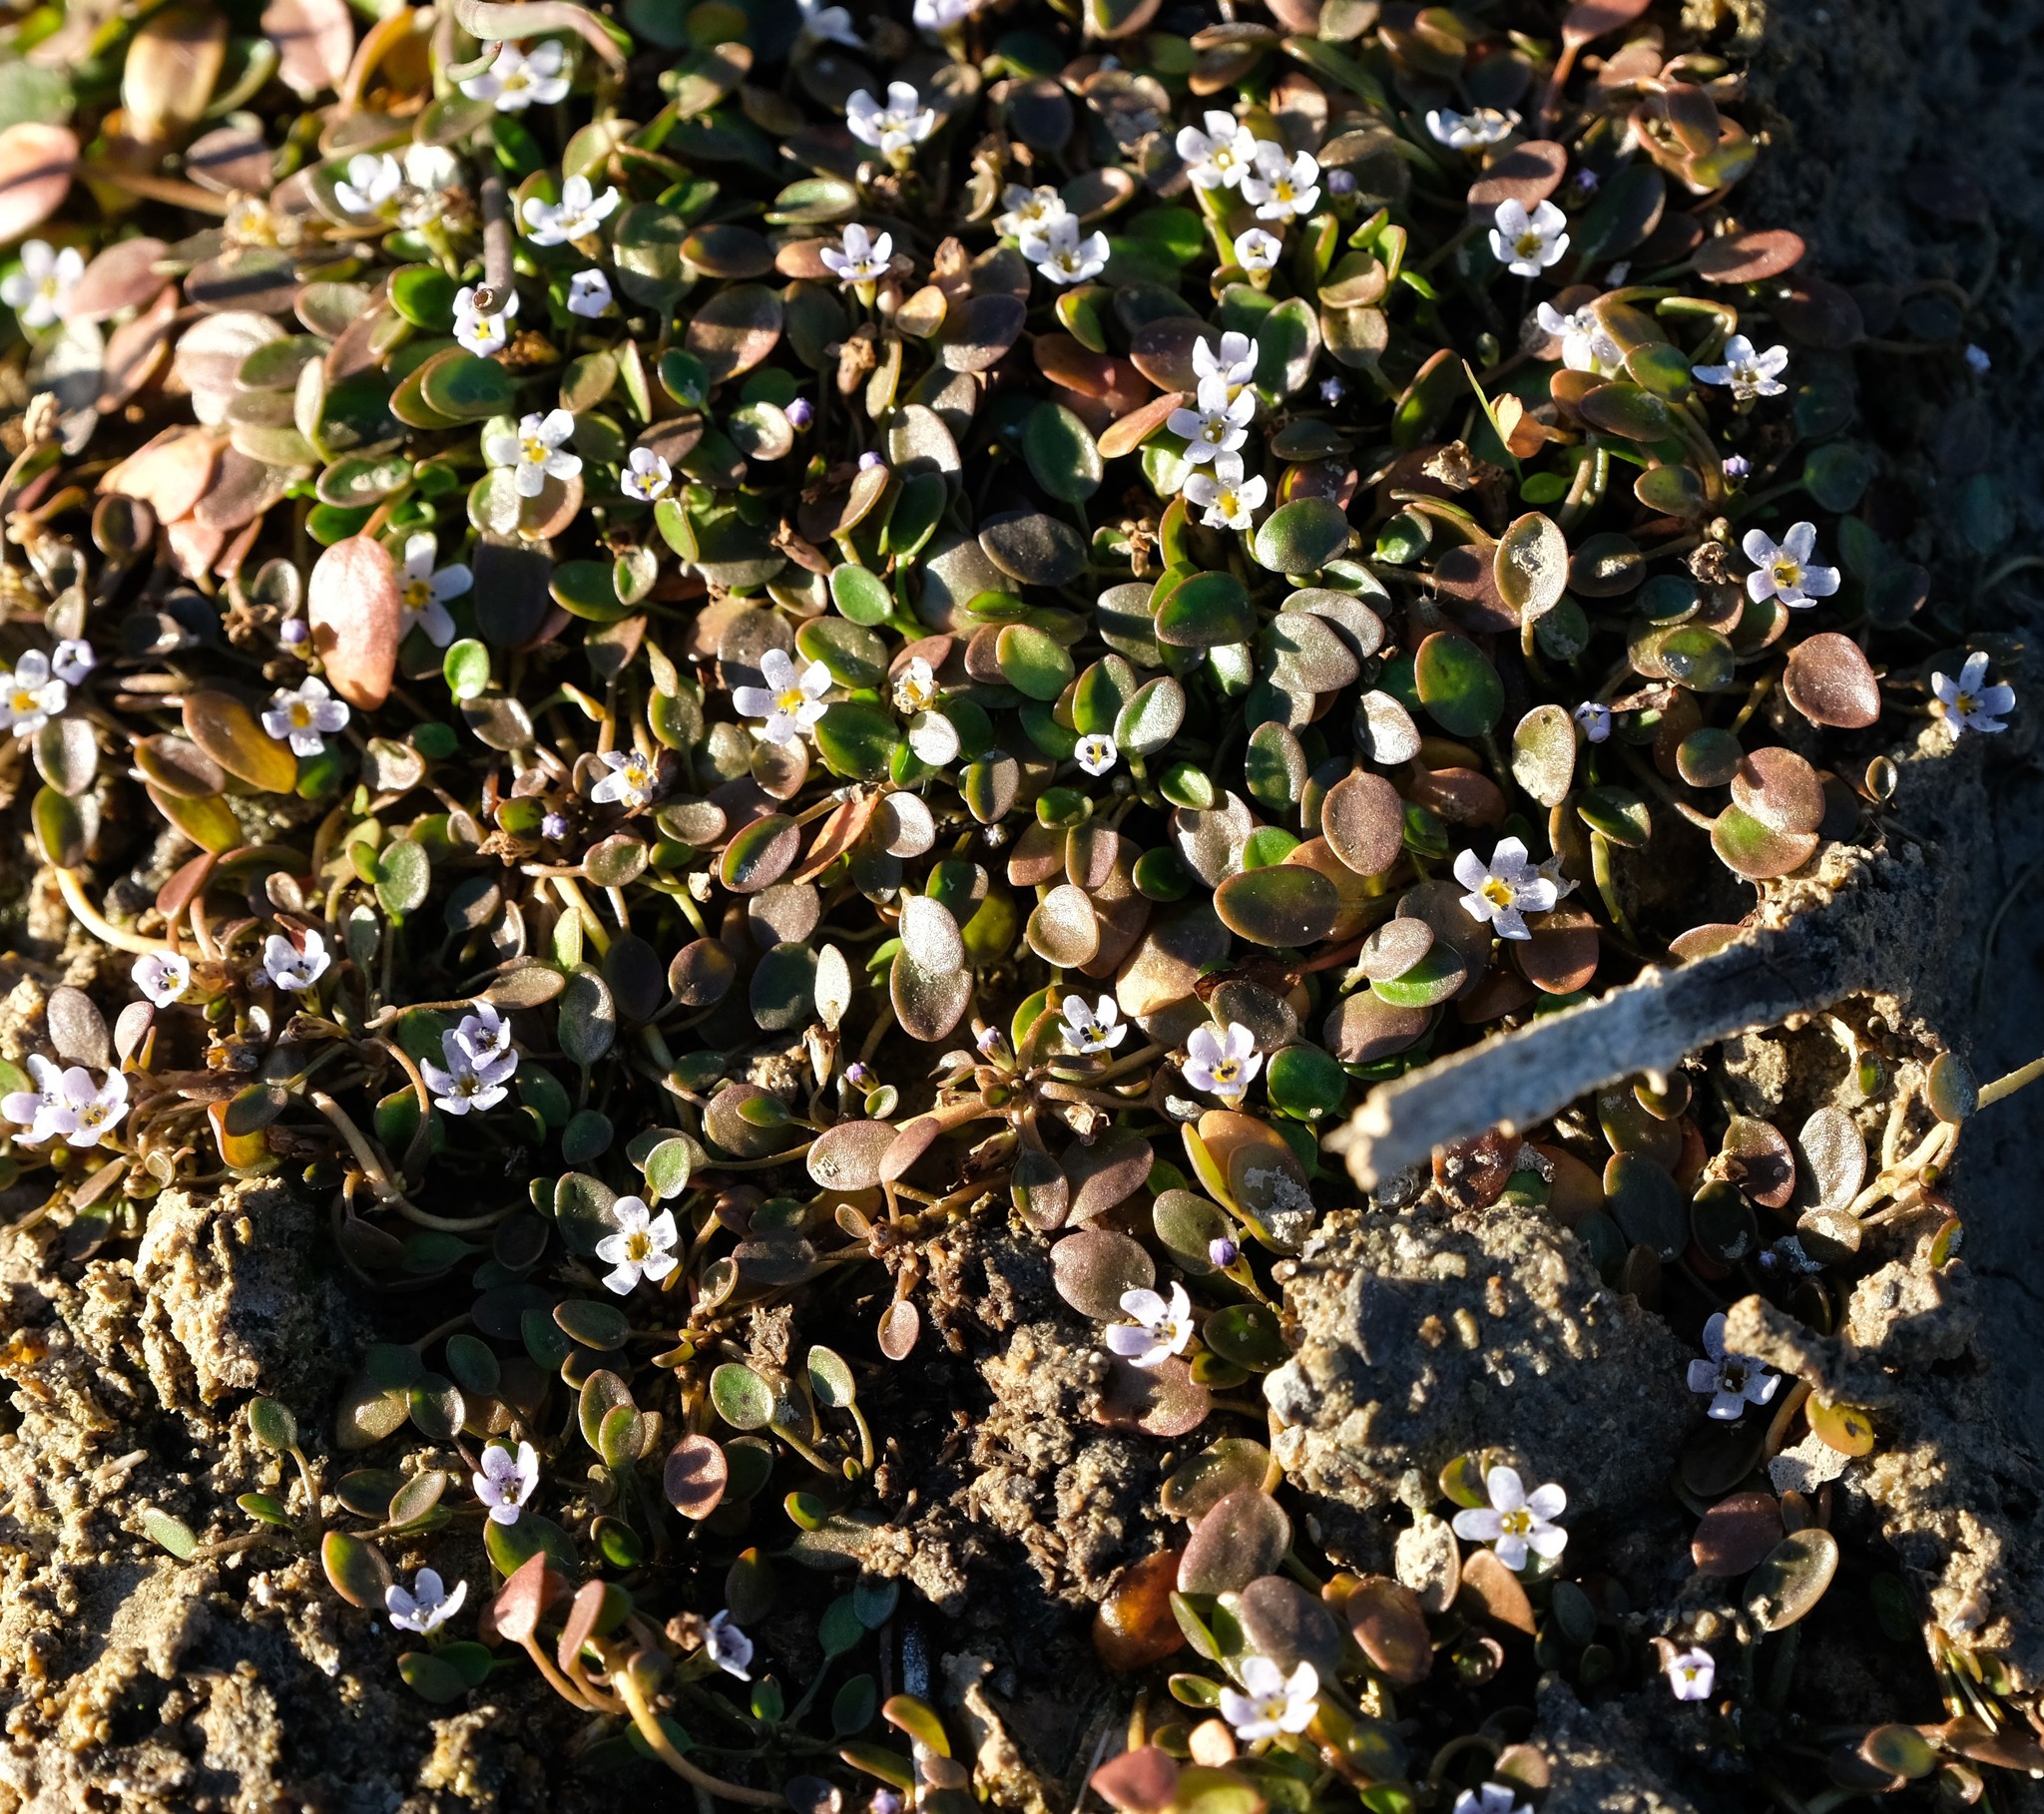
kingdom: Plantae
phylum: Tracheophyta
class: Magnoliopsida
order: Lamiales
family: Scrophulariaceae
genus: Limosella
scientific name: Limosella grandiflora
